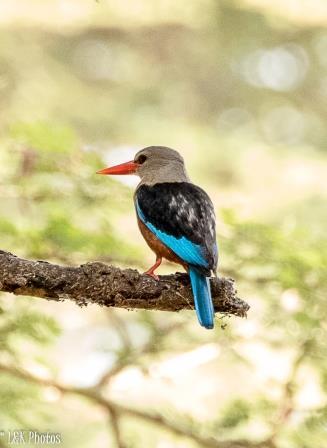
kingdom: Animalia
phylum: Chordata
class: Aves
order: Coraciiformes
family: Alcedinidae
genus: Halcyon
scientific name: Halcyon leucocephala
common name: Grey-headed kingfisher
